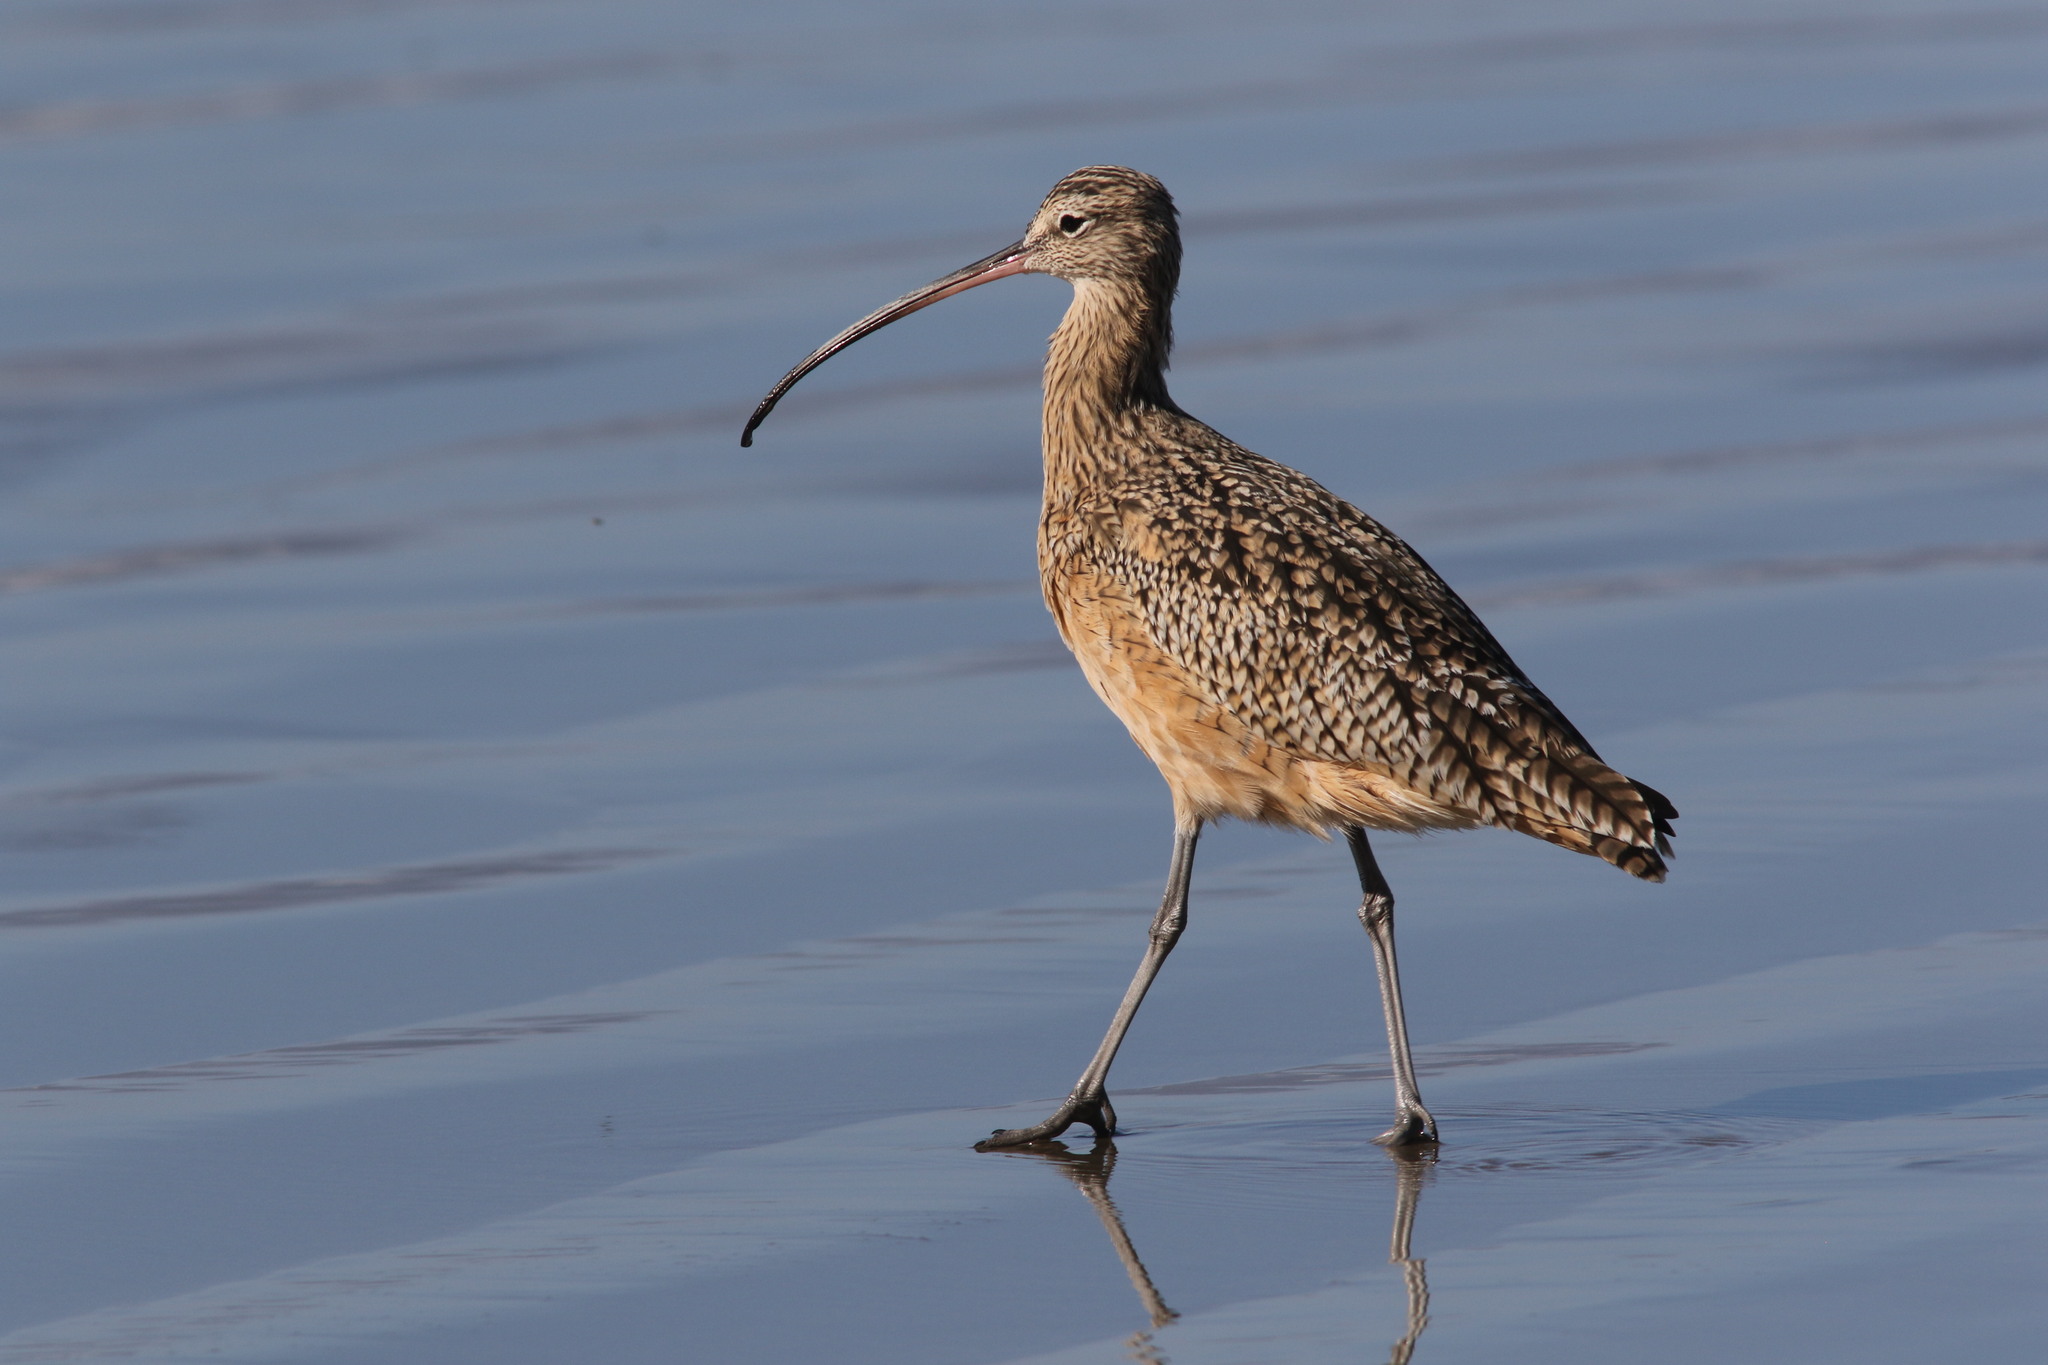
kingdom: Animalia
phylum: Chordata
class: Aves
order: Charadriiformes
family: Scolopacidae
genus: Numenius
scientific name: Numenius americanus
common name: Long-billed curlew
